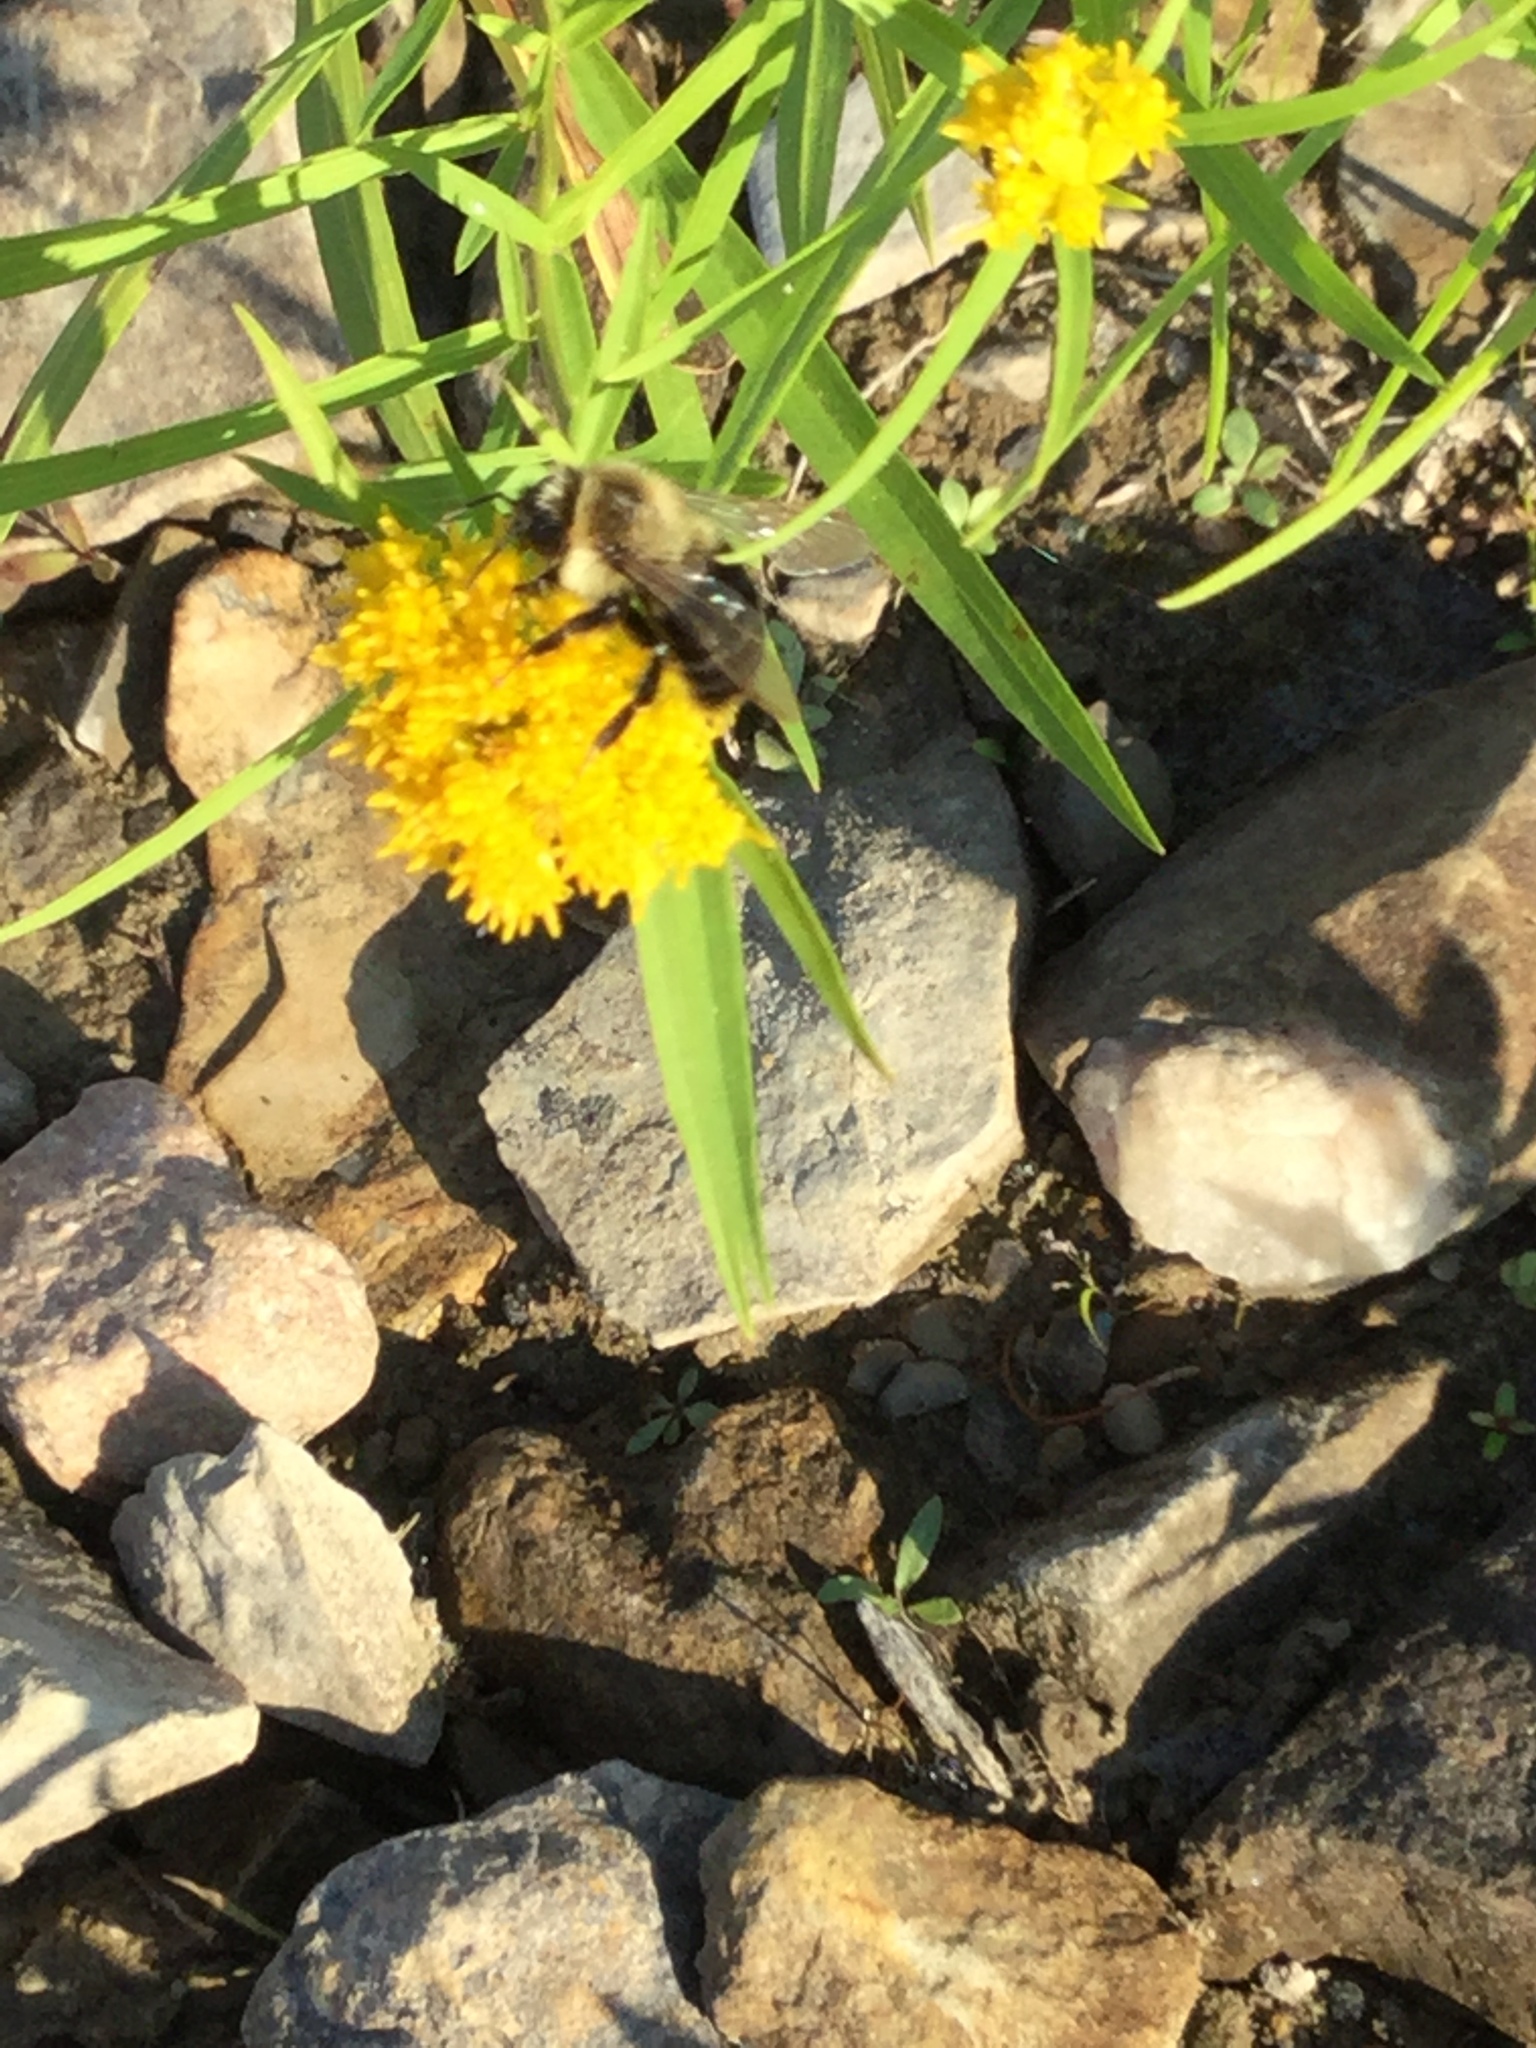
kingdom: Animalia
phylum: Arthropoda
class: Insecta
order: Hymenoptera
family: Apidae
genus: Bombus
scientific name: Bombus impatiens
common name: Common eastern bumble bee
